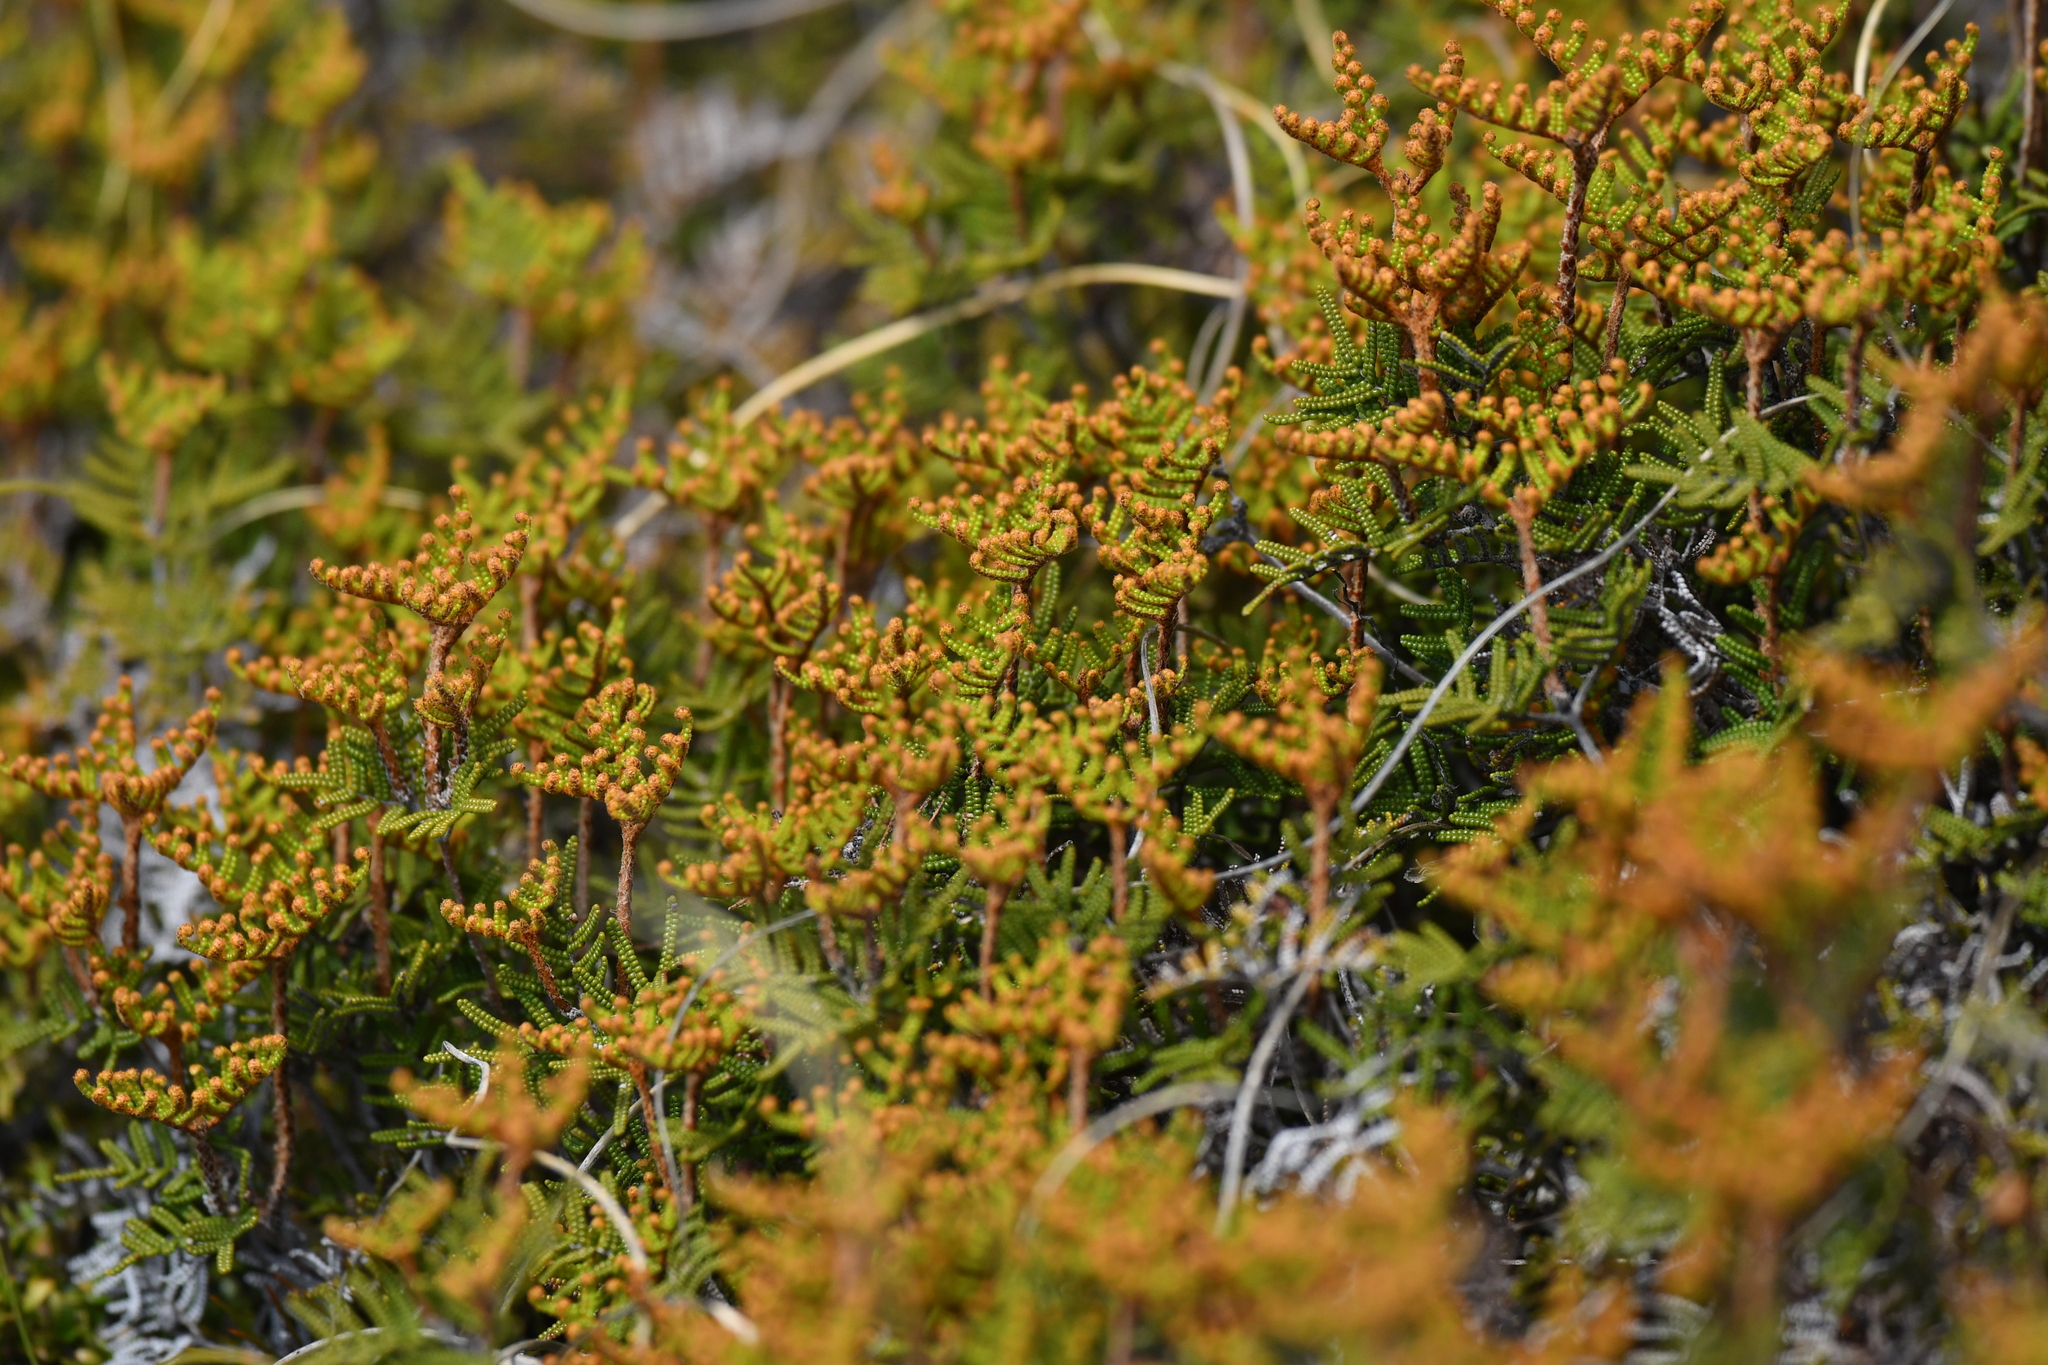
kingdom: Plantae
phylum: Tracheophyta
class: Polypodiopsida
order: Gleicheniales
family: Gleicheniaceae
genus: Gleichenia
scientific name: Gleichenia alpina
